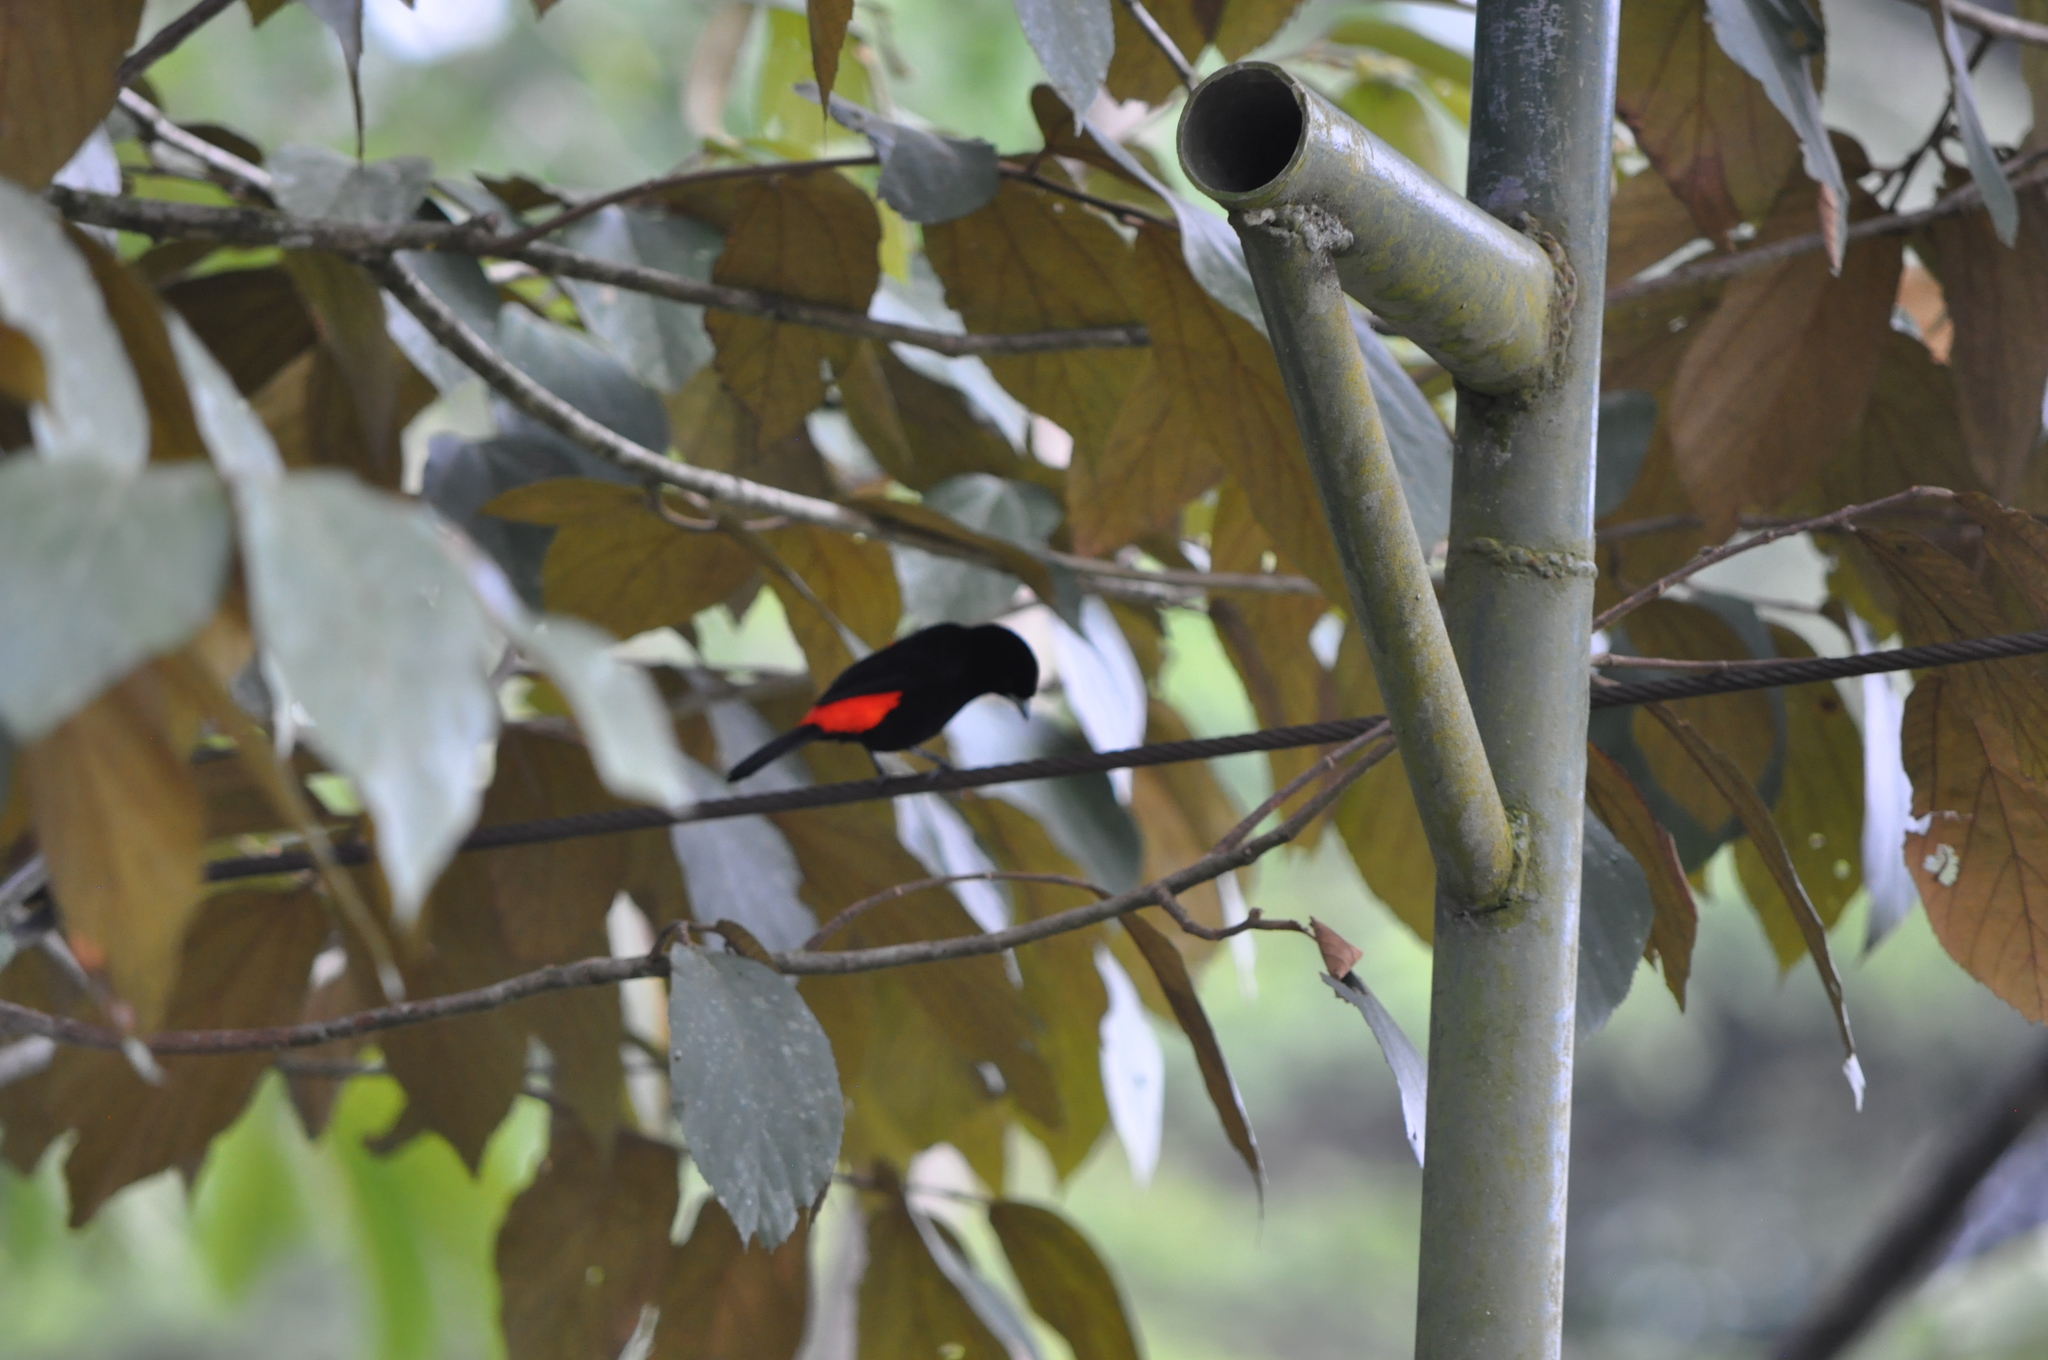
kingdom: Animalia
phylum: Chordata
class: Aves
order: Passeriformes
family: Thraupidae
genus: Ramphocelus
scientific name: Ramphocelus passerinii
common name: Passerini's tanager
